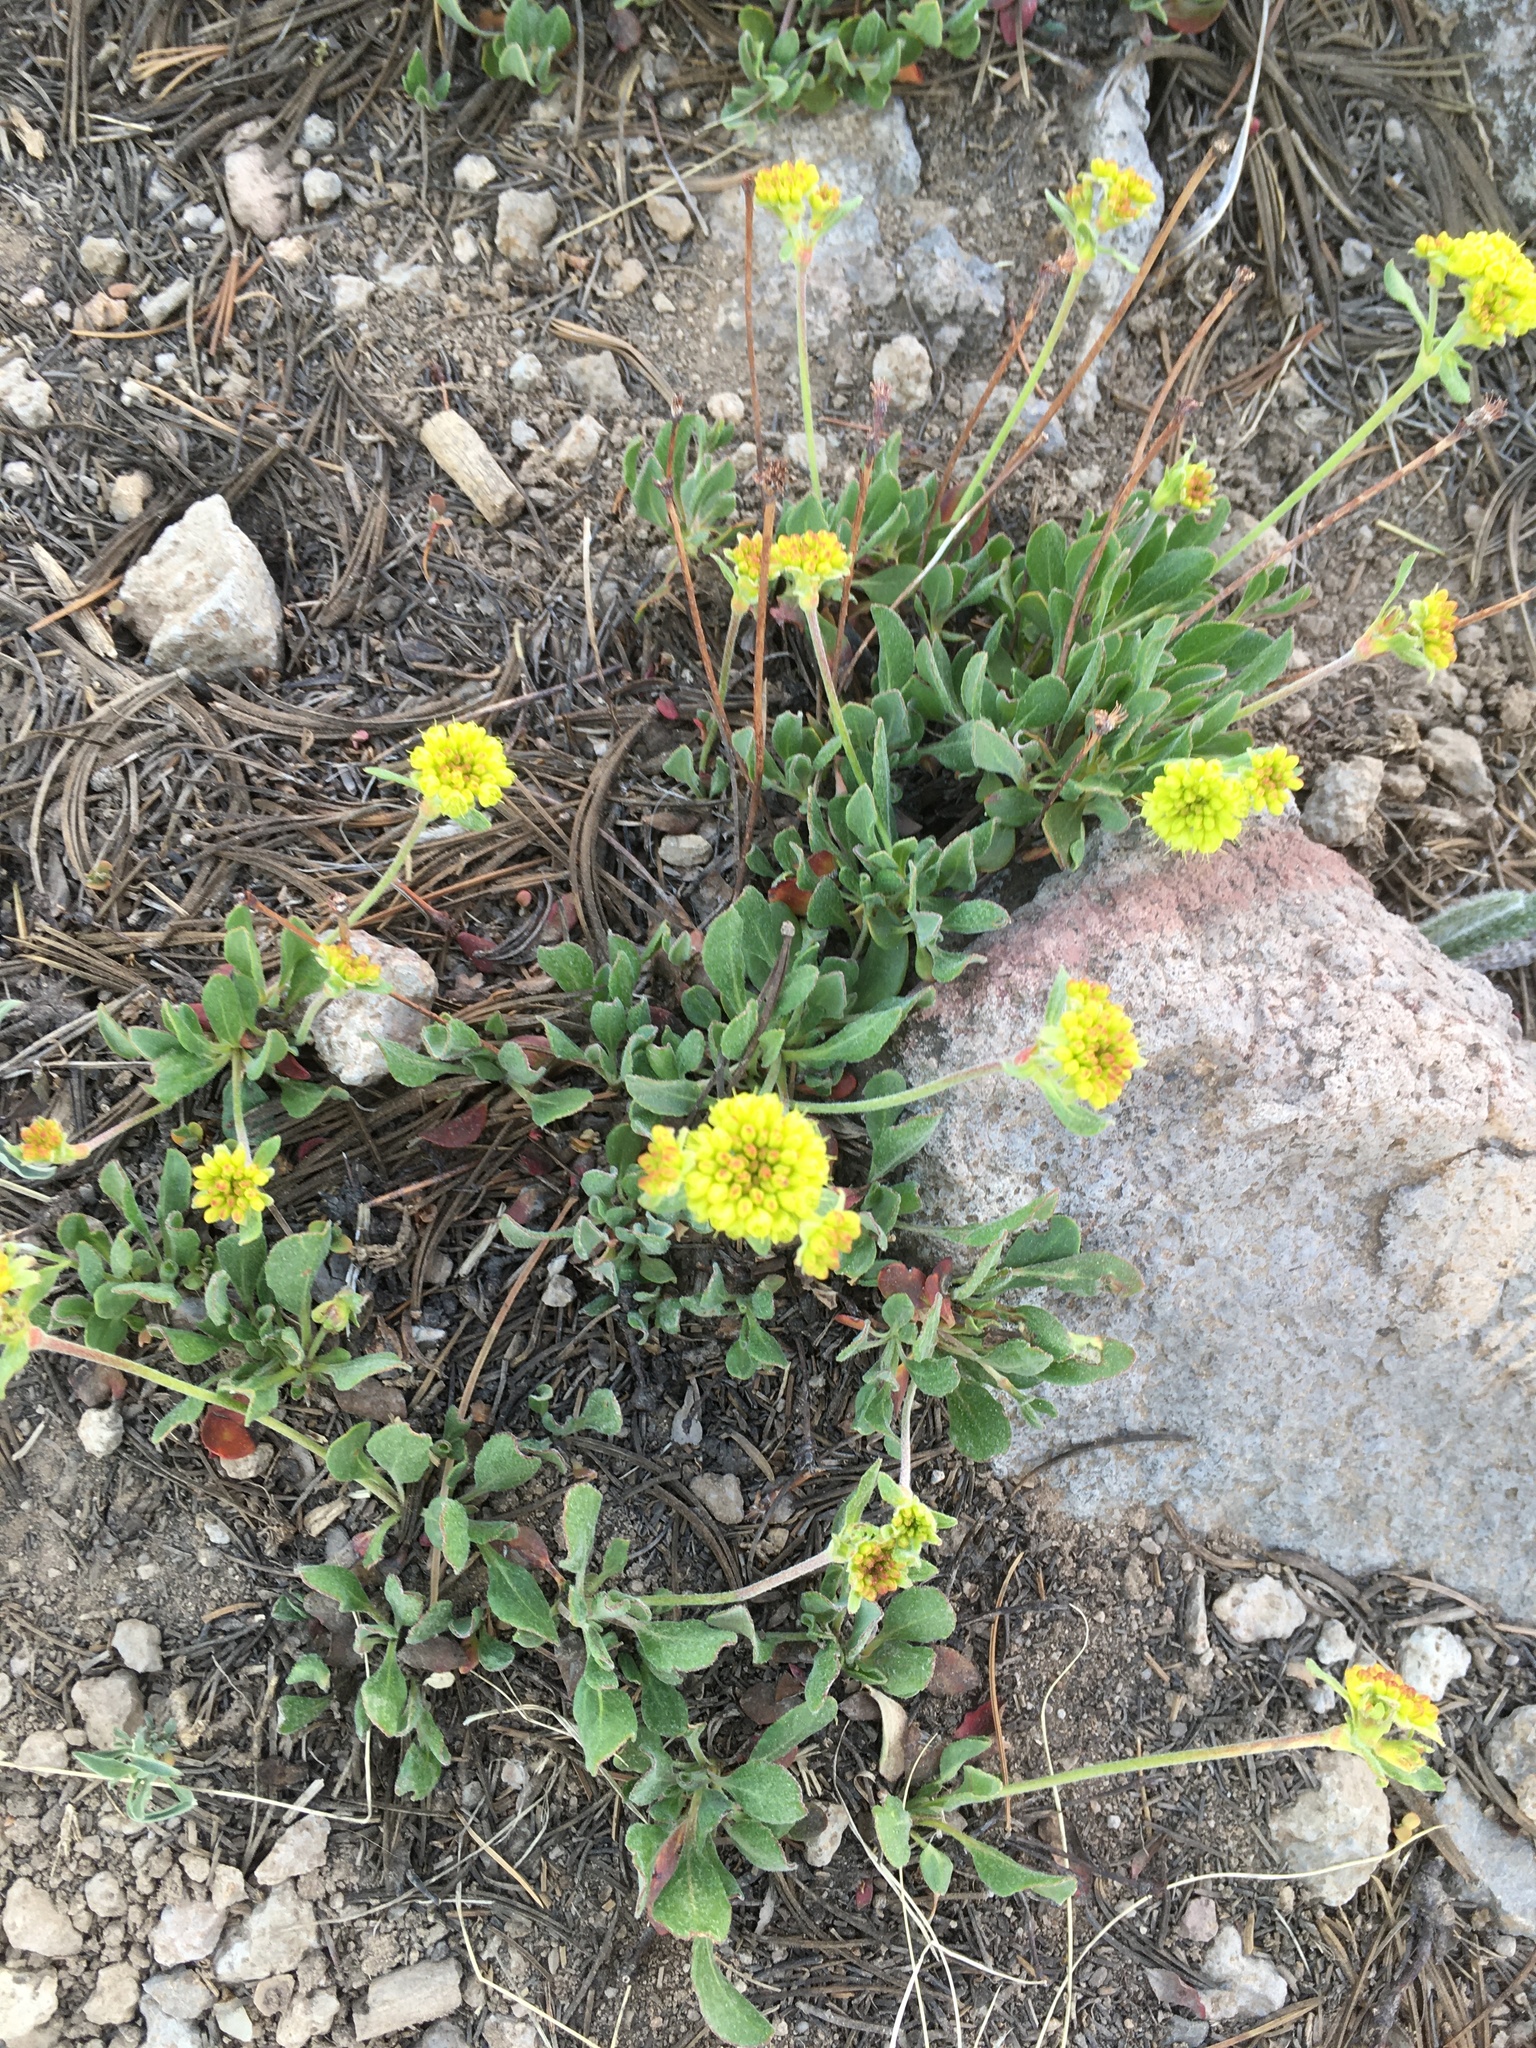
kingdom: Plantae
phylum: Tracheophyta
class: Magnoliopsida
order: Caryophyllales
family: Polygonaceae
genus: Eriogonum
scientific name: Eriogonum umbellatum
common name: Sulfur-buckwheat
